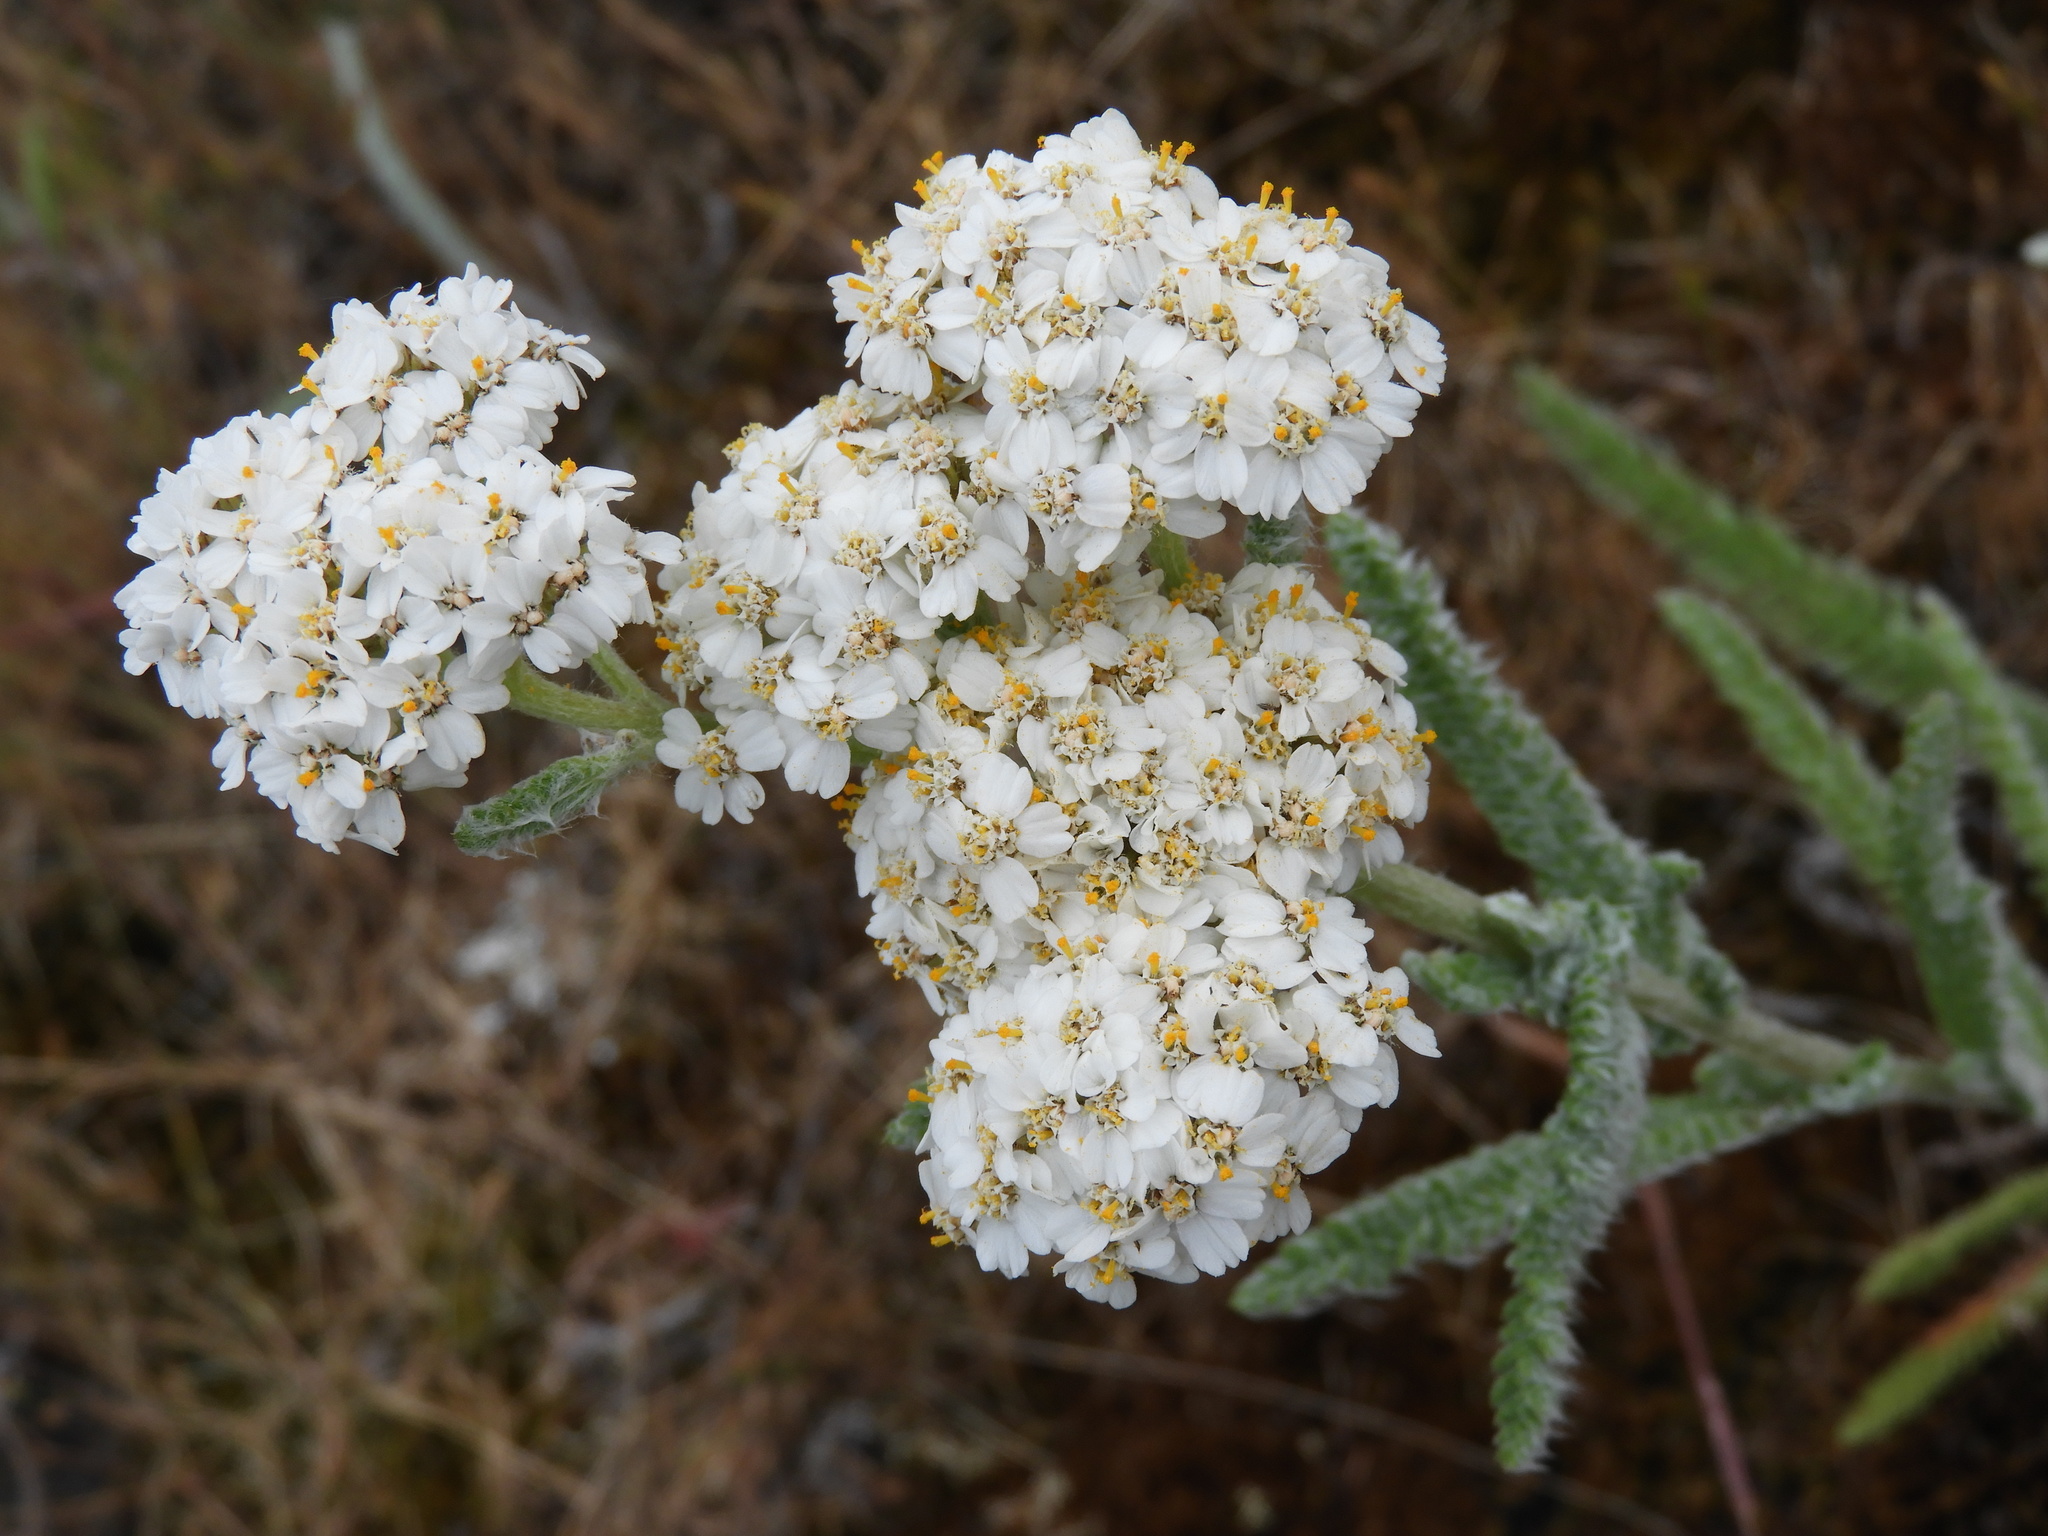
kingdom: Plantae
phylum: Tracheophyta
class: Magnoliopsida
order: Asterales
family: Asteraceae
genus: Achillea
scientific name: Achillea millefolium
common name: Yarrow
